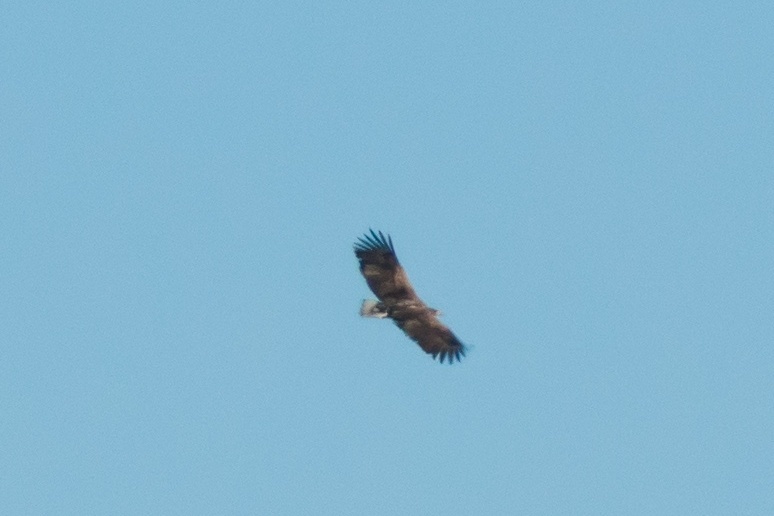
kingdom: Animalia
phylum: Chordata
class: Aves
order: Accipitriformes
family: Accipitridae
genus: Haliaeetus
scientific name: Haliaeetus albicilla
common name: White-tailed eagle
